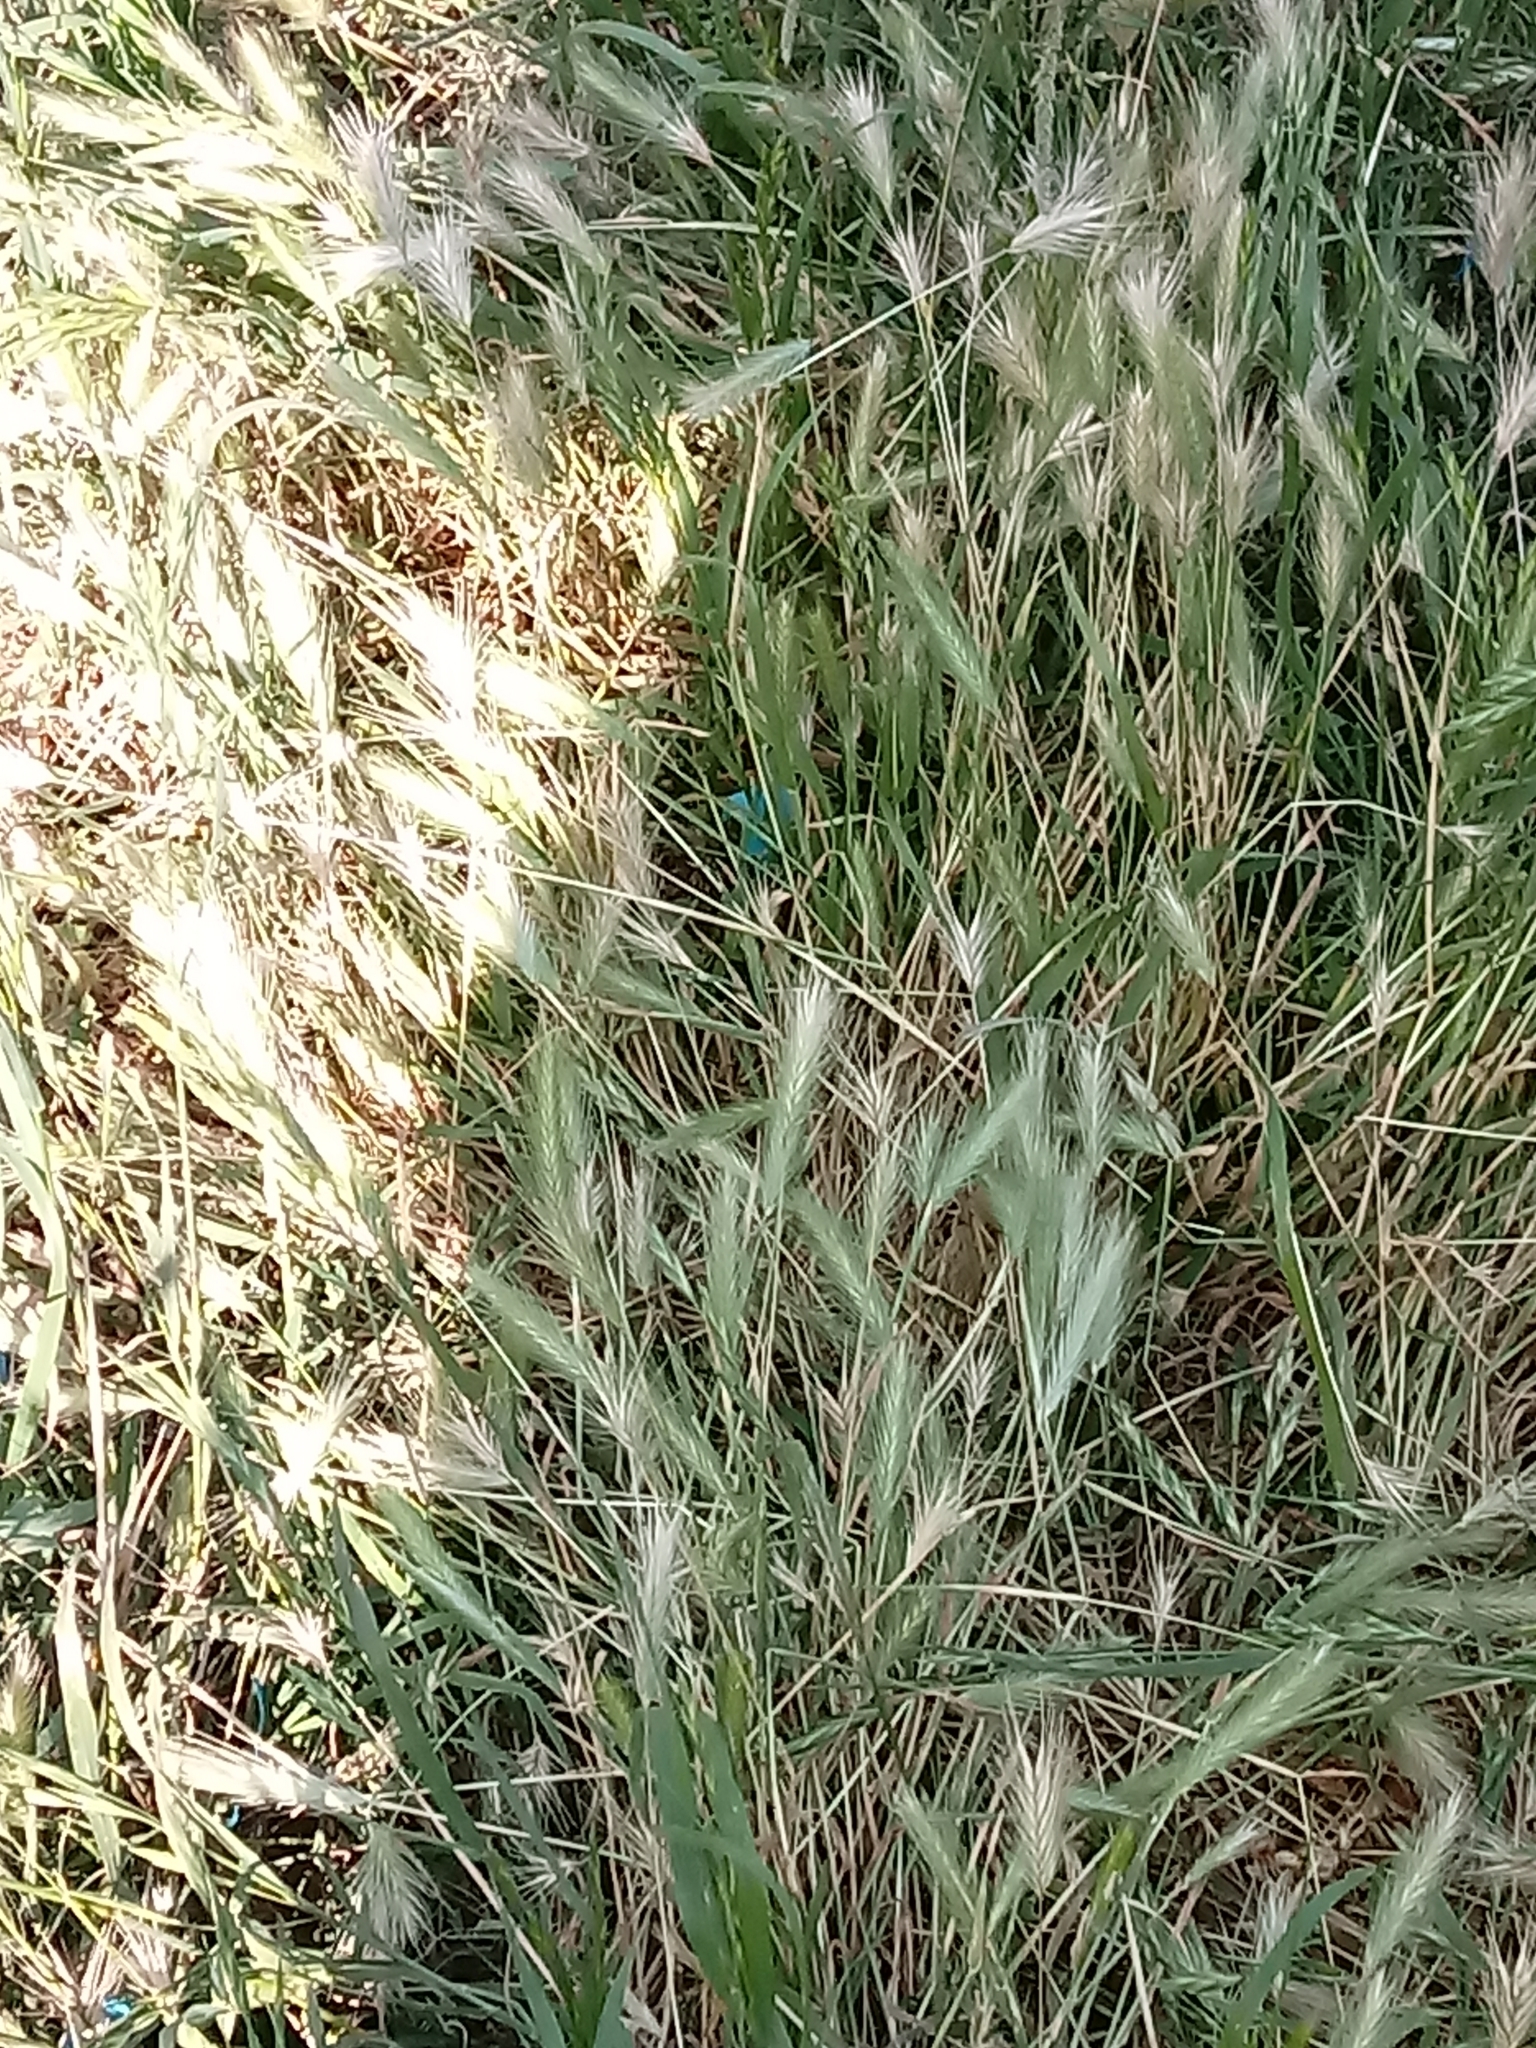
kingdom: Plantae
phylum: Tracheophyta
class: Liliopsida
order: Poales
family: Poaceae
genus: Hordeum
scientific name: Hordeum murinum
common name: Wall barley
